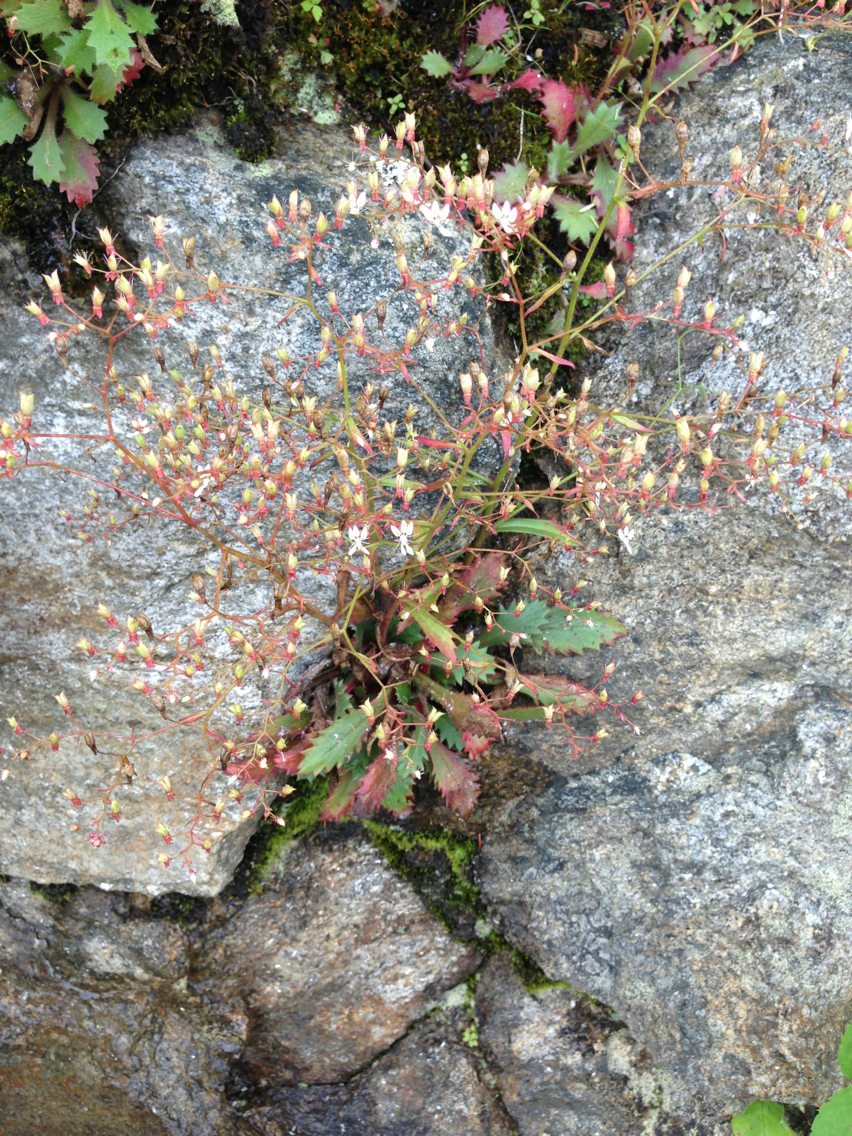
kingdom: Plantae
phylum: Tracheophyta
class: Magnoliopsida
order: Saxifragales
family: Saxifragaceae
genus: Micranthes
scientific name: Micranthes petiolaris
